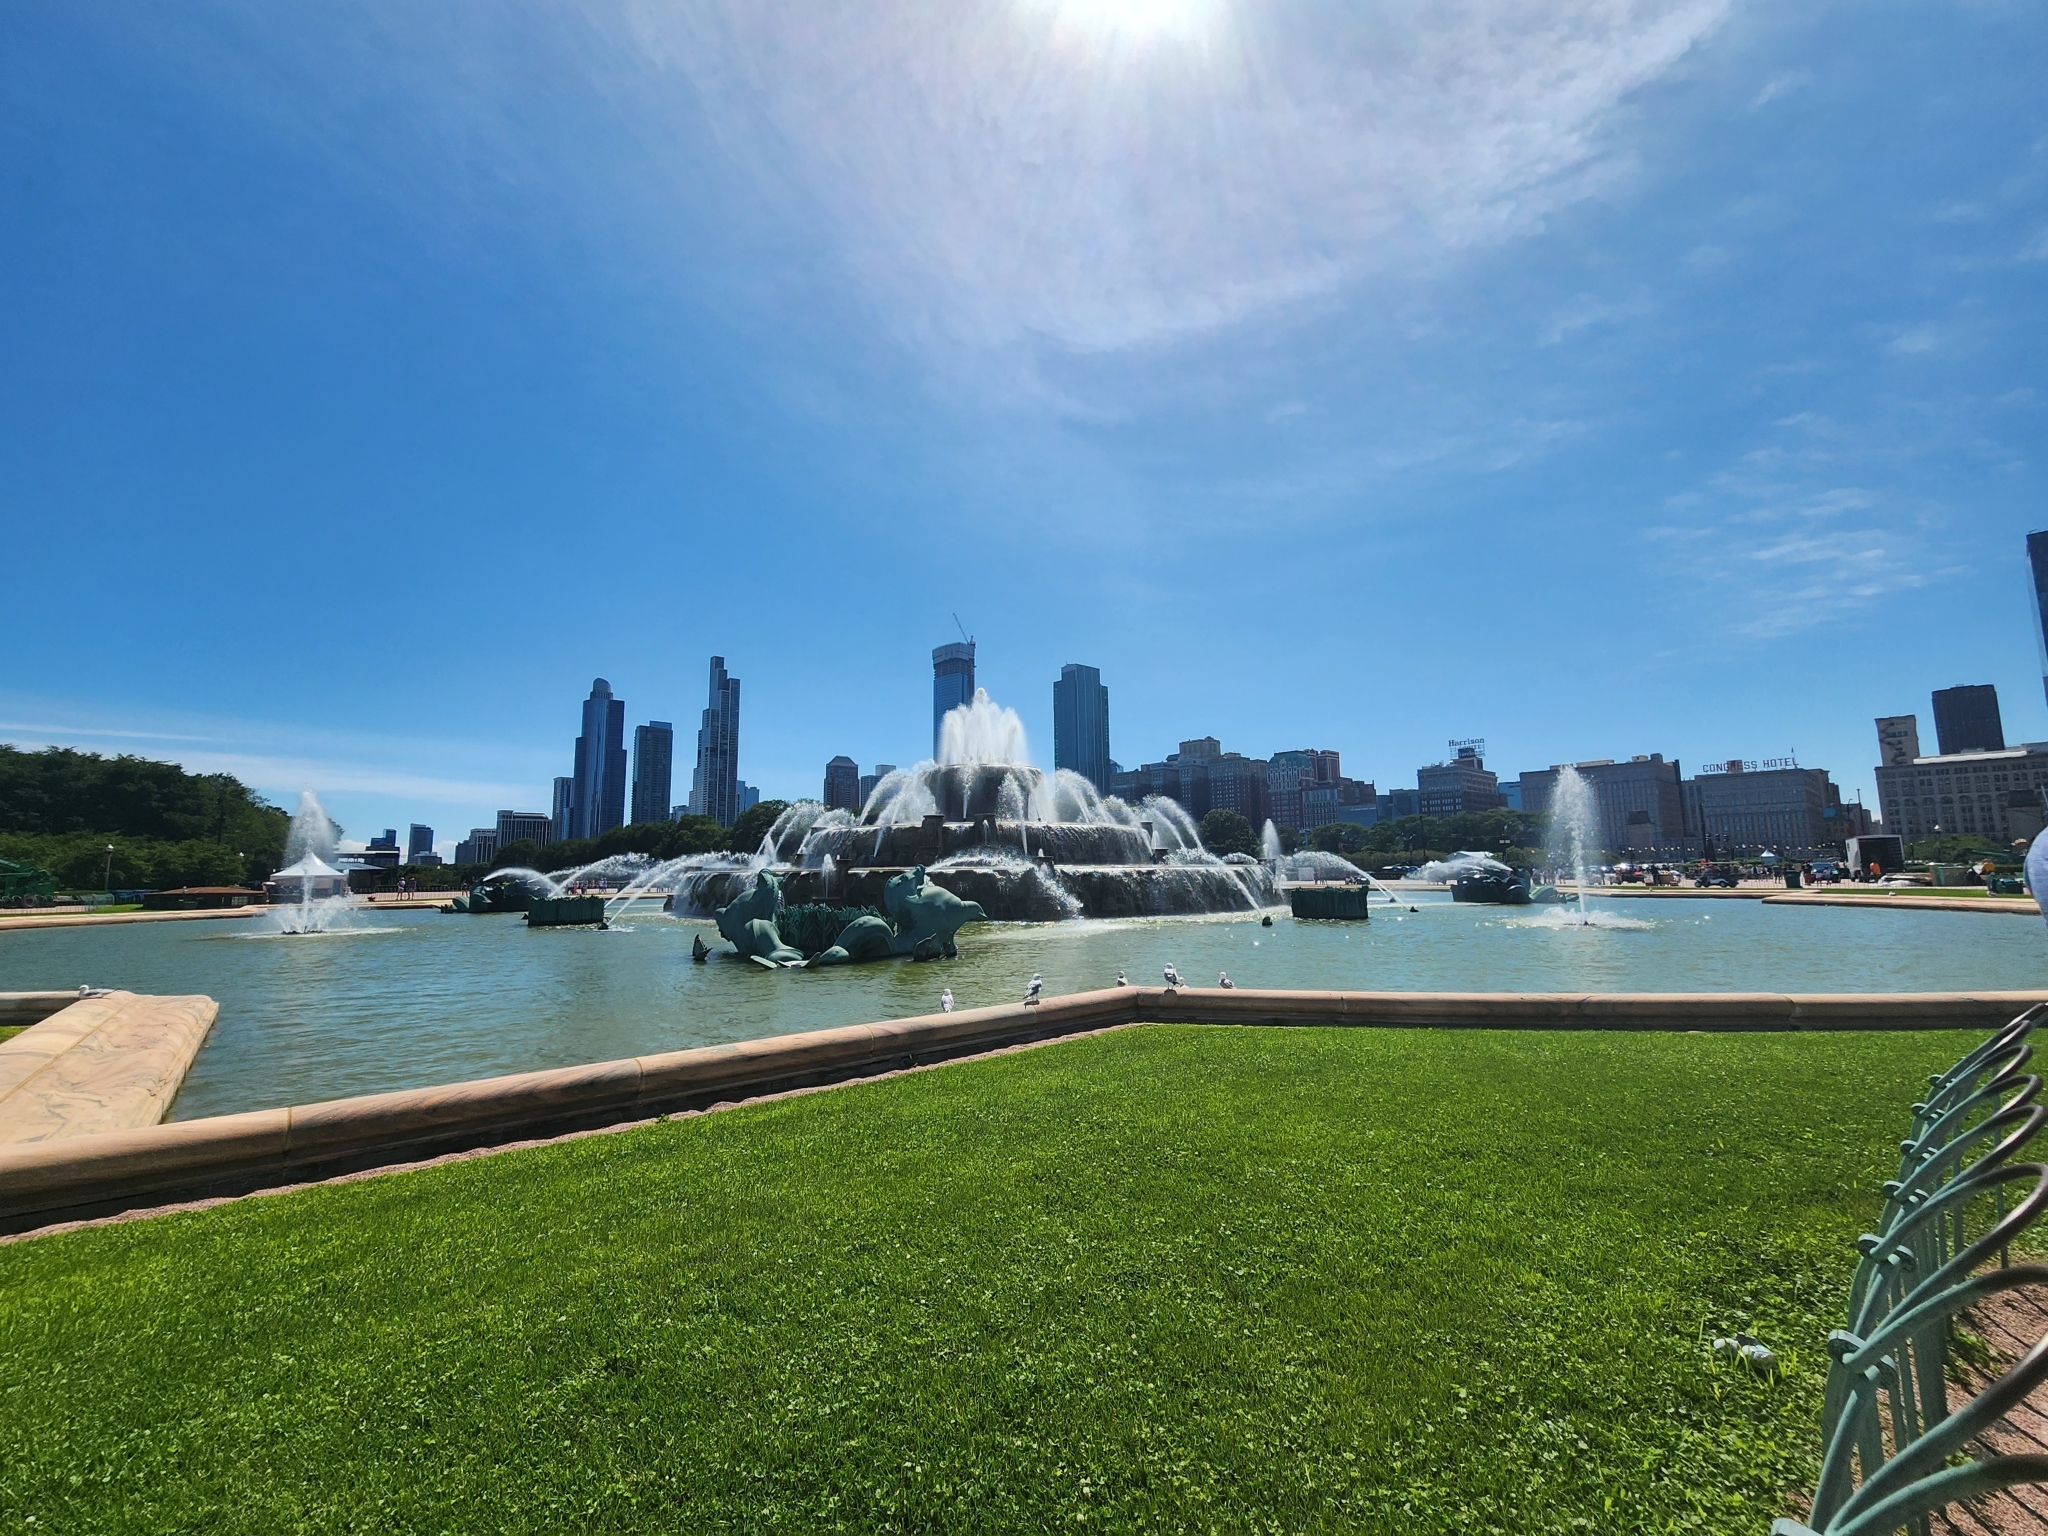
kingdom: Animalia
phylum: Chordata
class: Aves
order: Charadriiformes
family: Laridae
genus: Larus
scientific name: Larus delawarensis
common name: Ring-billed gull
